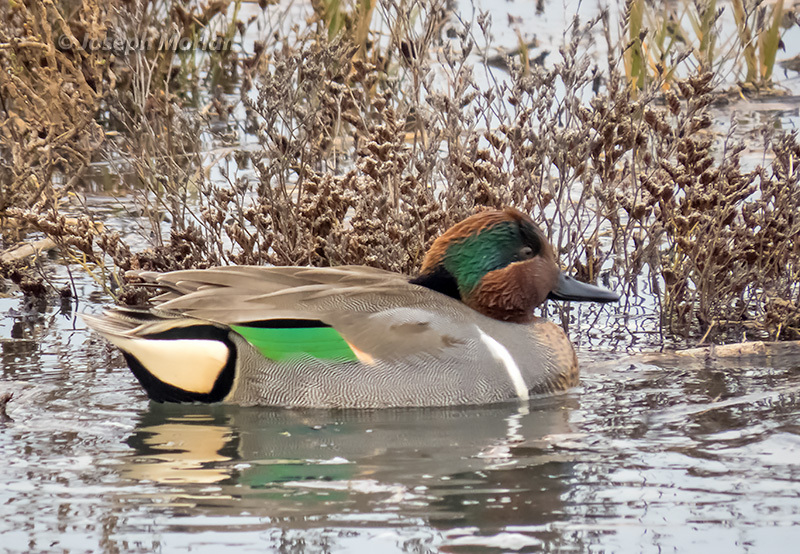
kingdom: Animalia
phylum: Chordata
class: Aves
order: Anseriformes
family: Anatidae
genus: Anas
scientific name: Anas crecca
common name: Eurasian teal
